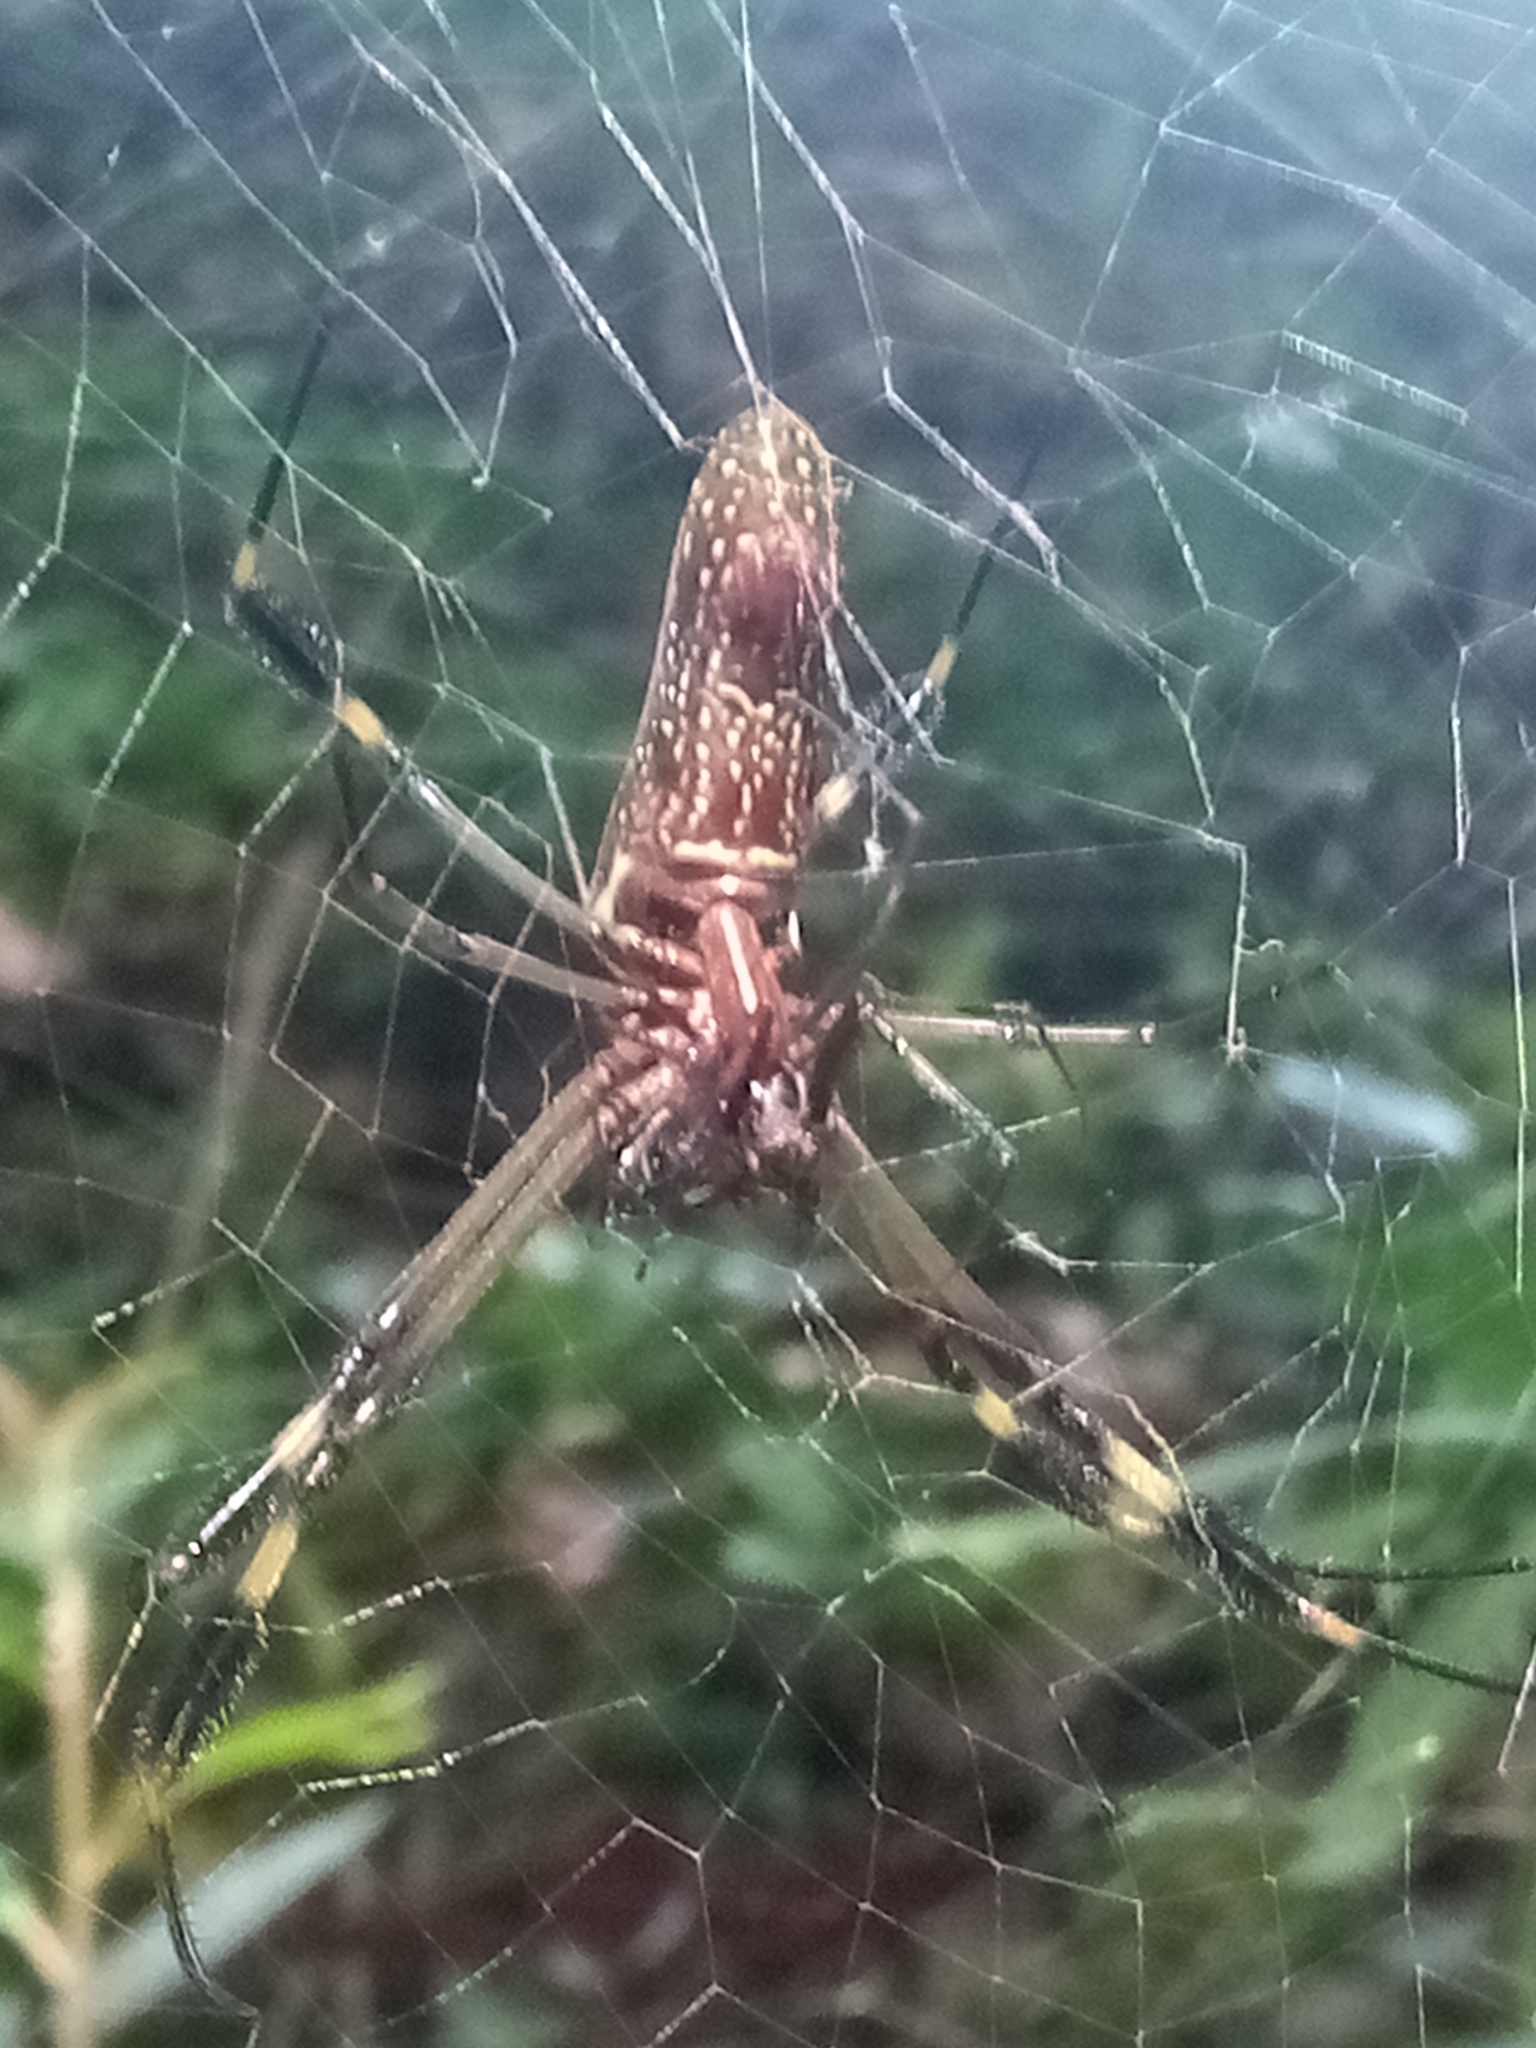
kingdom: Animalia
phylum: Arthropoda
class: Arachnida
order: Araneae
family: Araneidae
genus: Trichonephila
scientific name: Trichonephila clavipes
